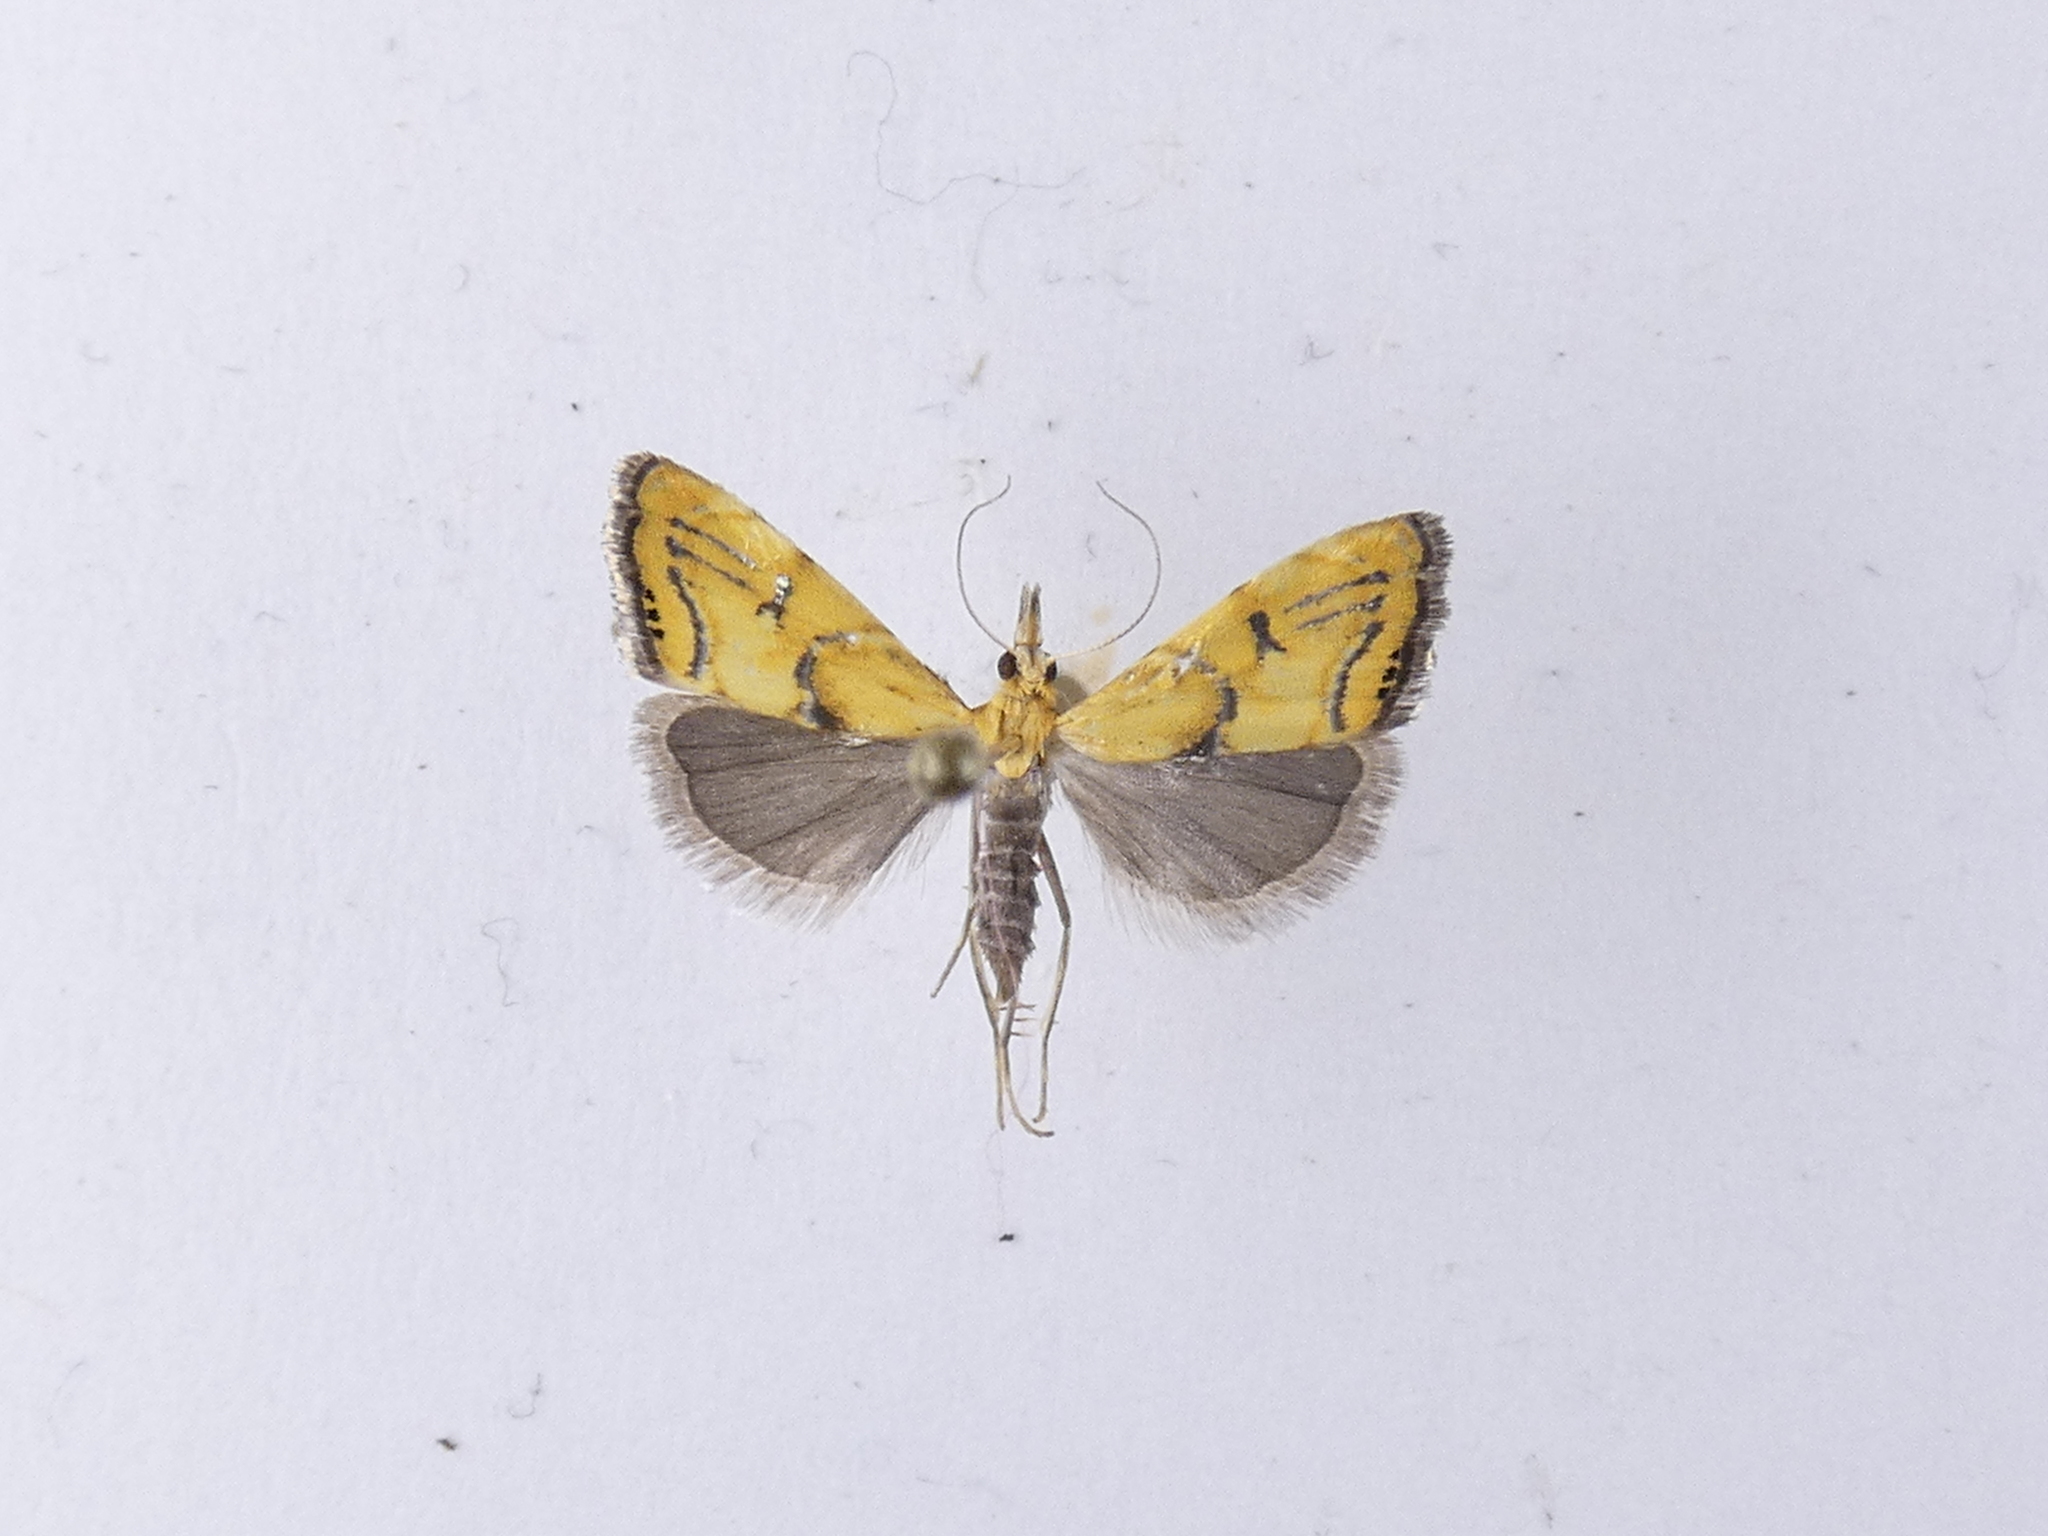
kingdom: Animalia
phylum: Arthropoda
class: Insecta
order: Lepidoptera
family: Crambidae
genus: Glaucocharis
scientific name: Glaucocharis auriscriptella
